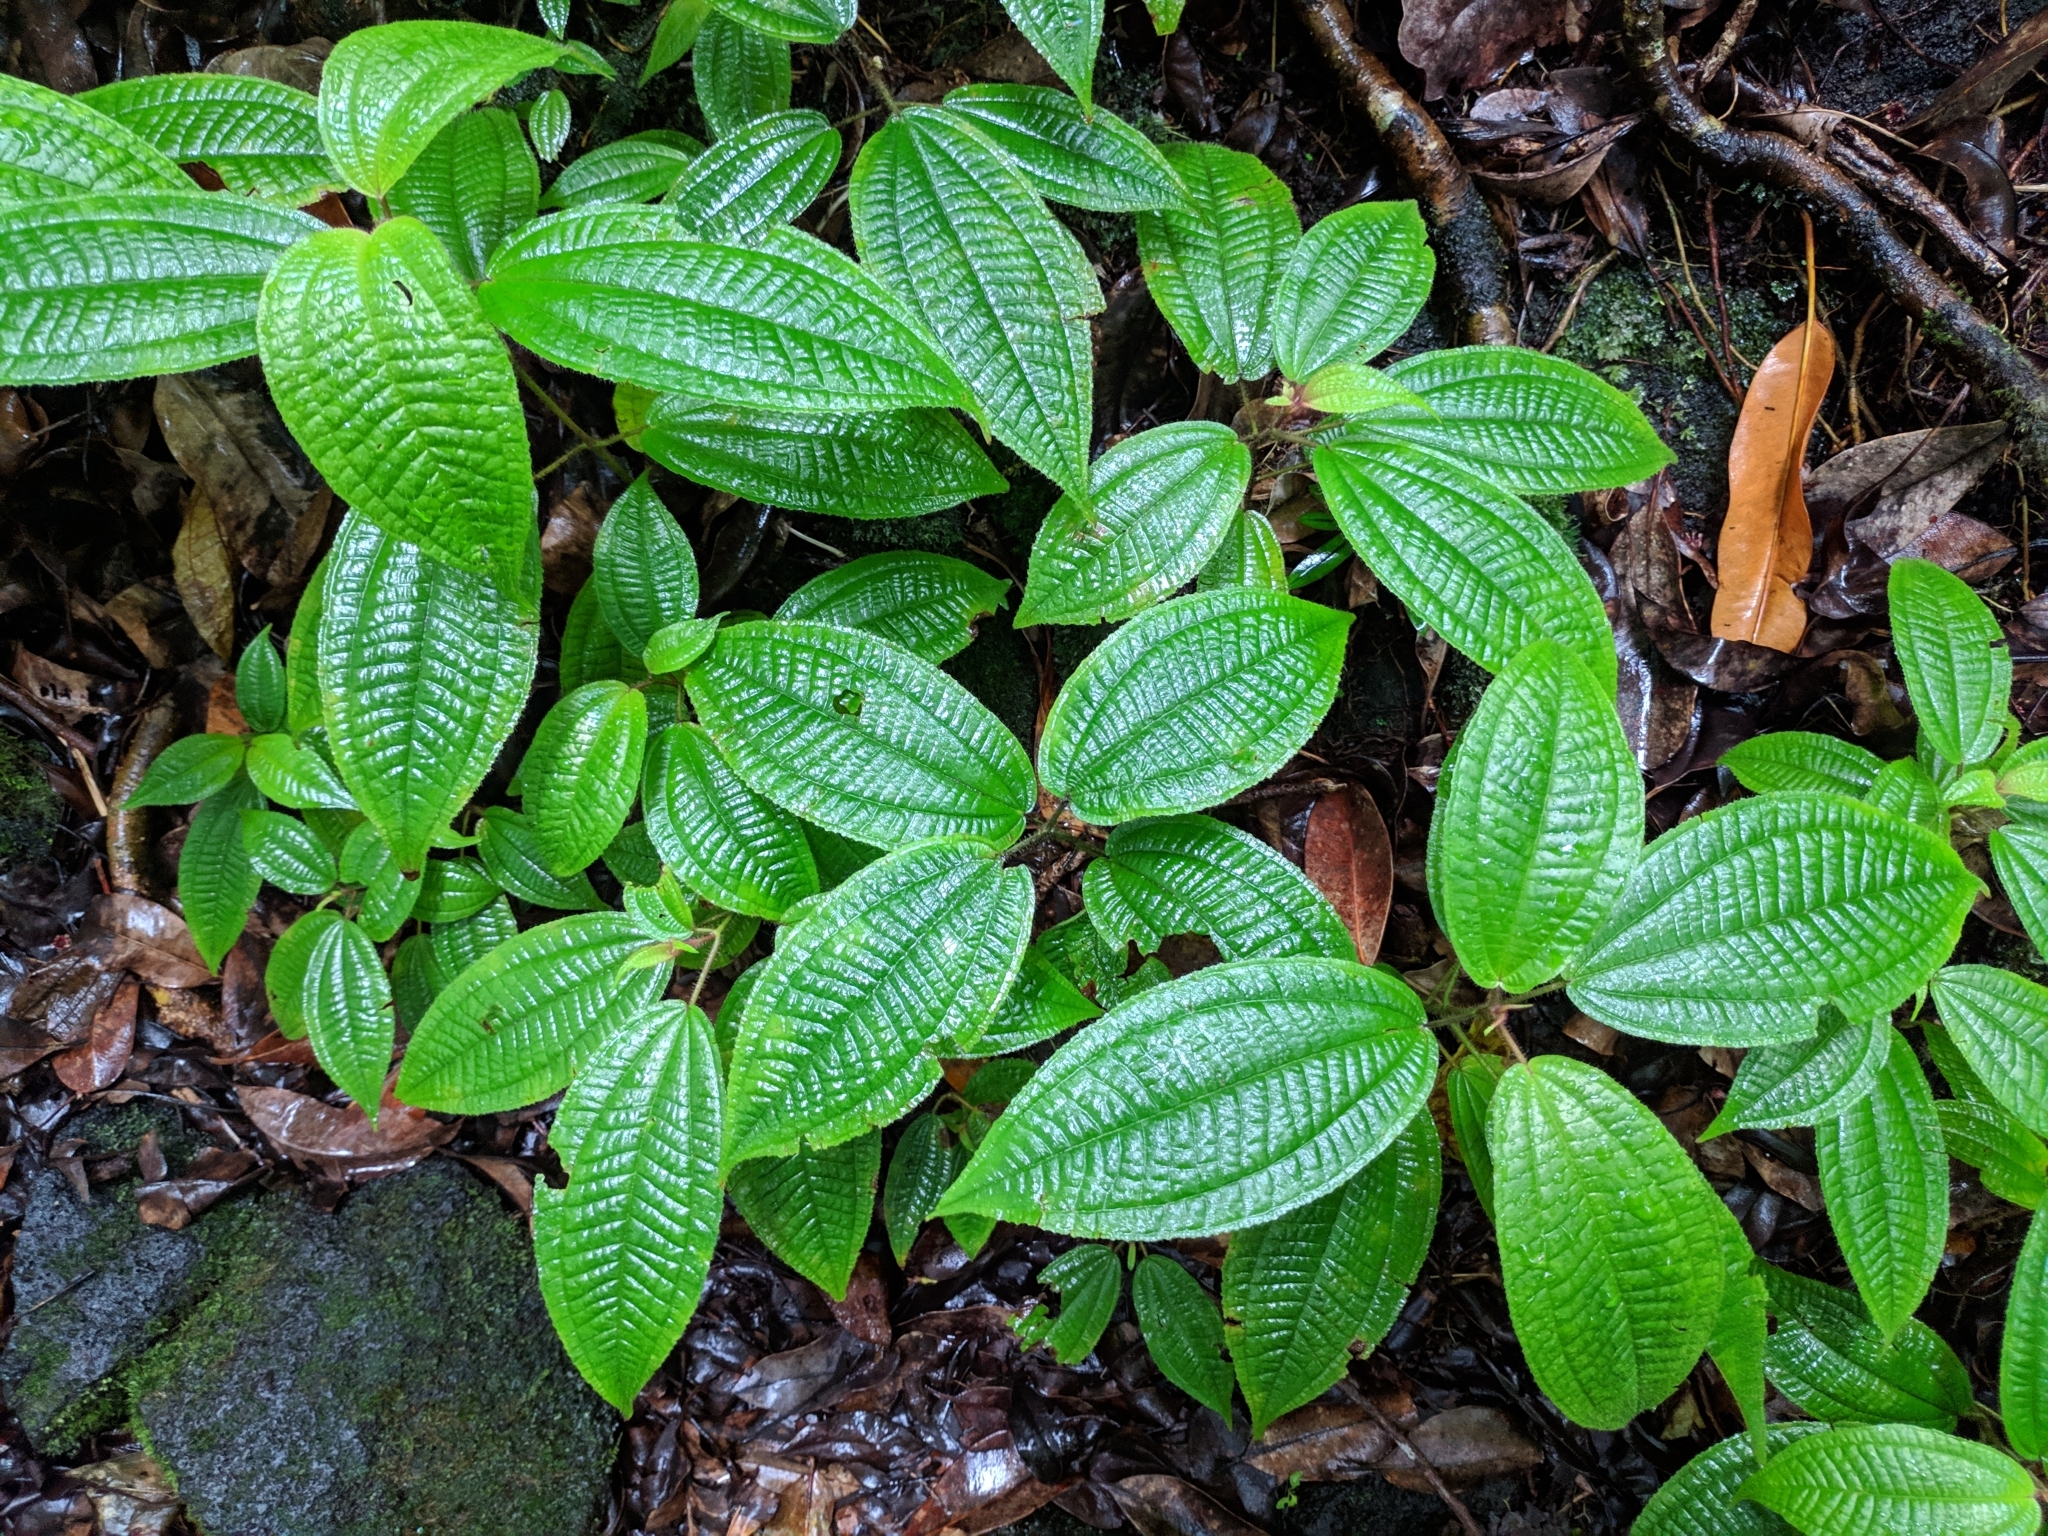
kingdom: Plantae
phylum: Tracheophyta
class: Magnoliopsida
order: Myrtales
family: Melastomataceae
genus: Miconia
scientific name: Miconia crenata
